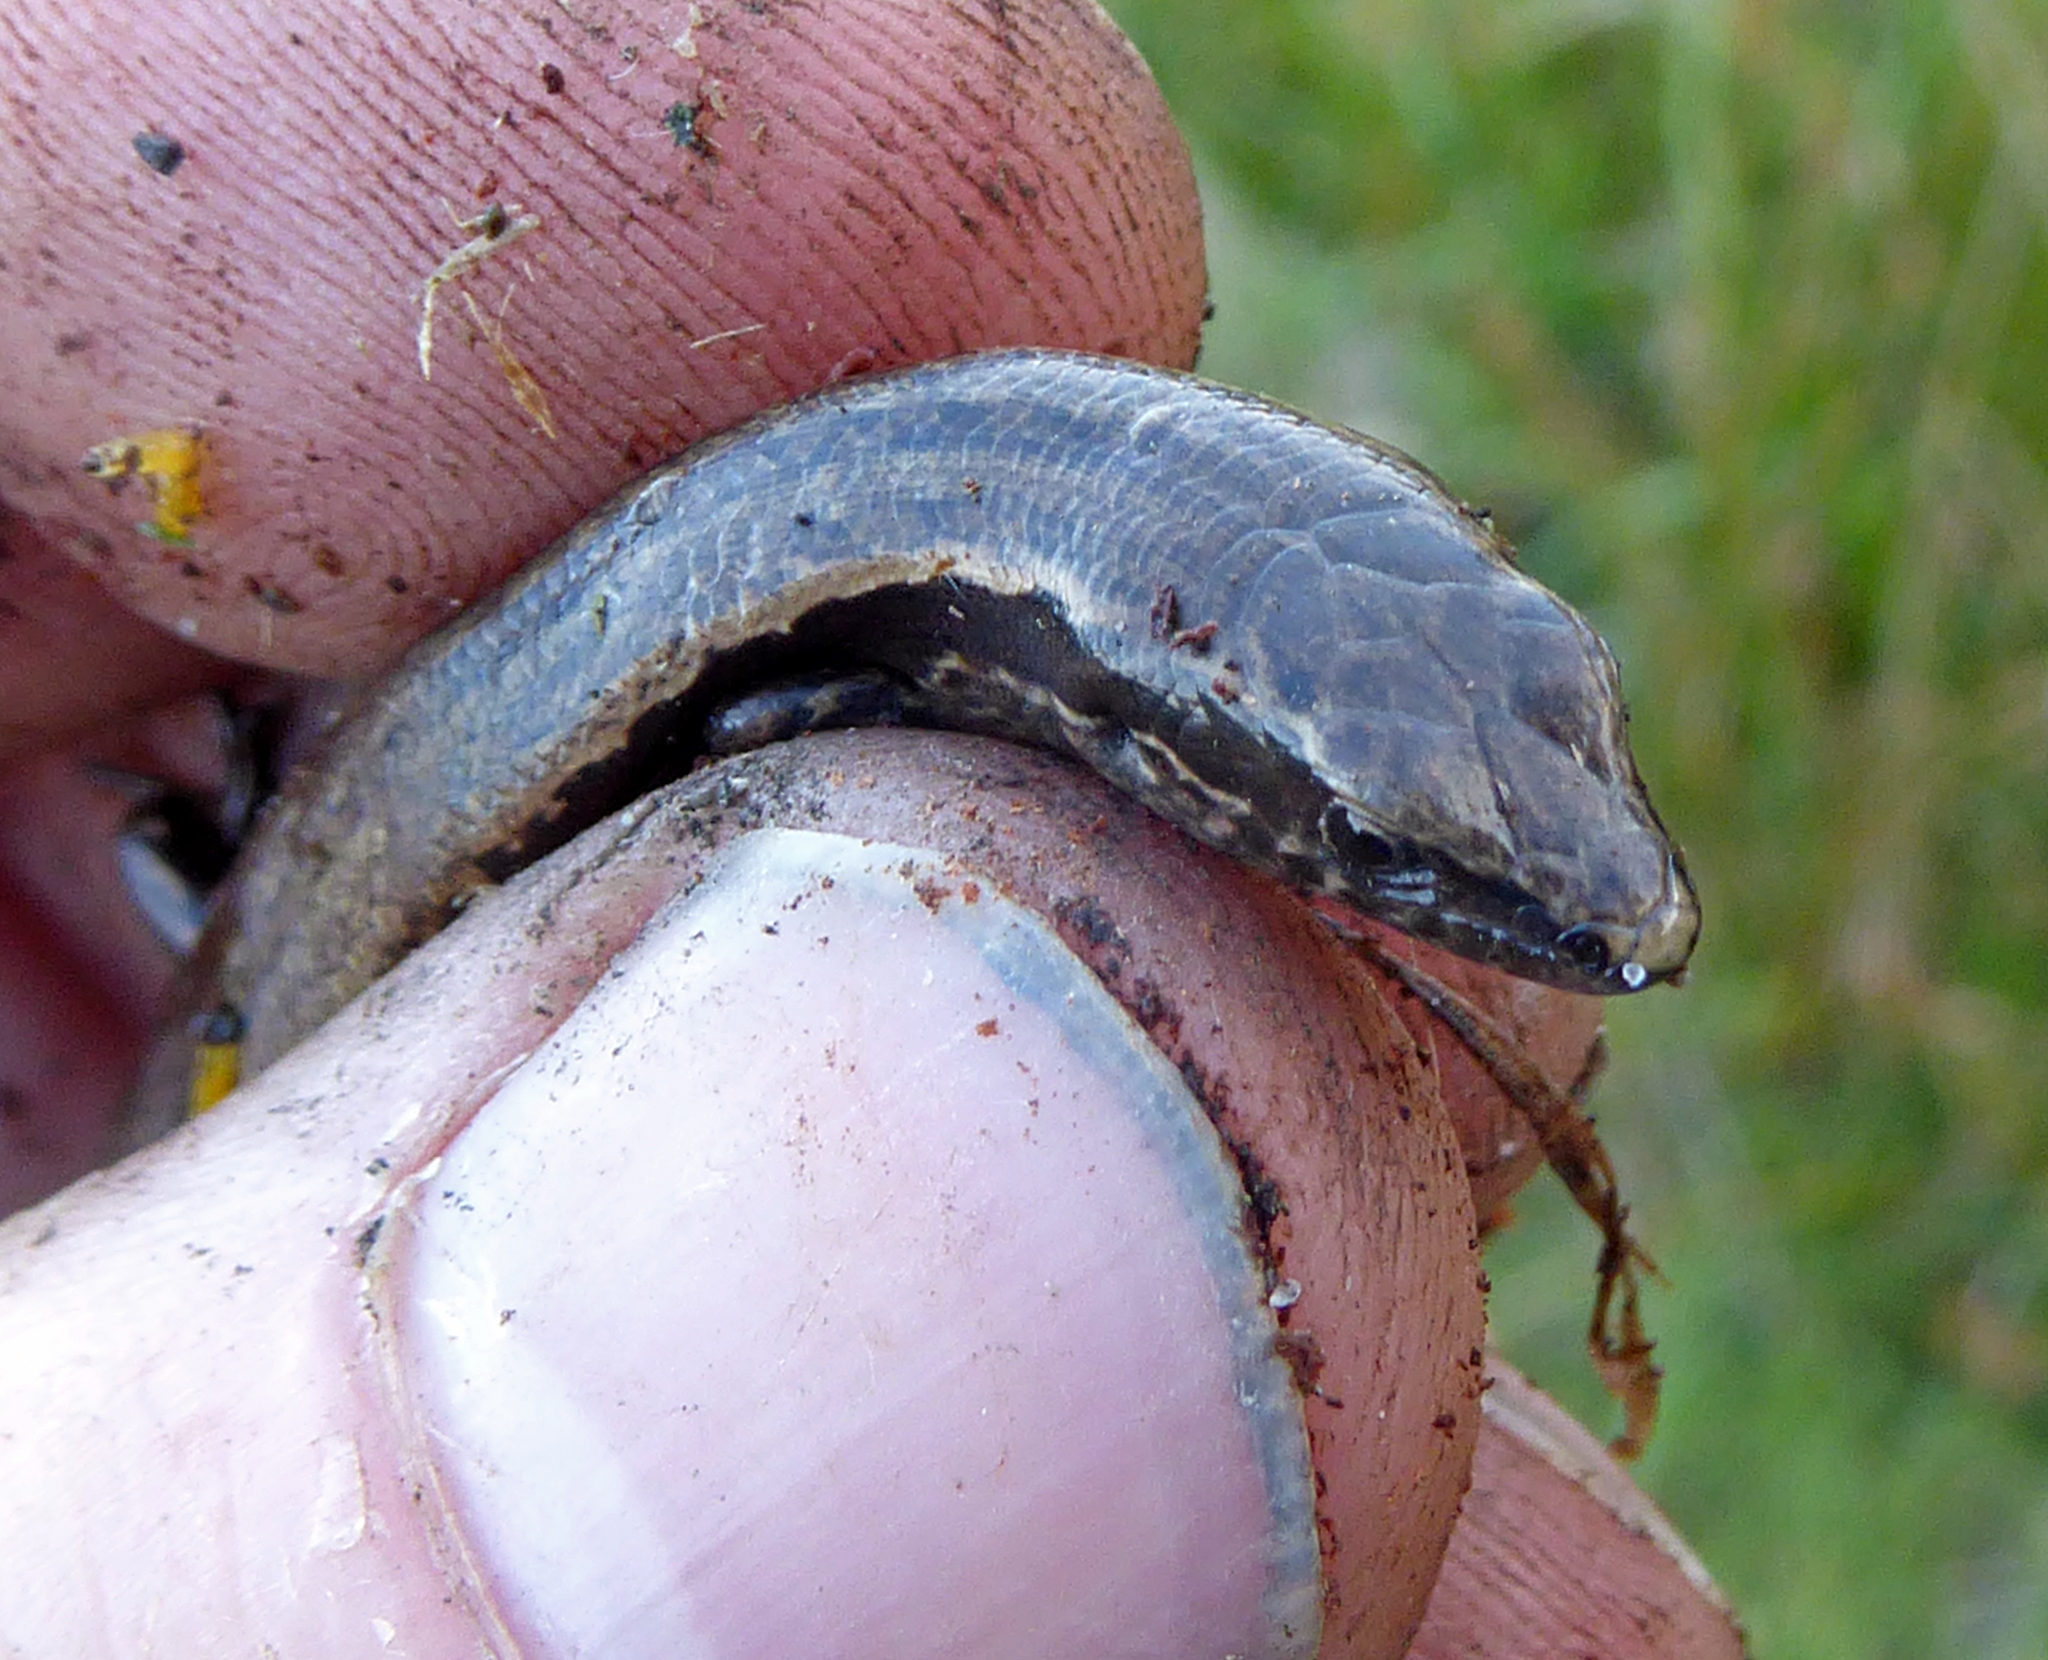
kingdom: Animalia
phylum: Chordata
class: Squamata
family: Scincidae
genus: Oligosoma
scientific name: Oligosoma zelandicum
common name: Brown skink
